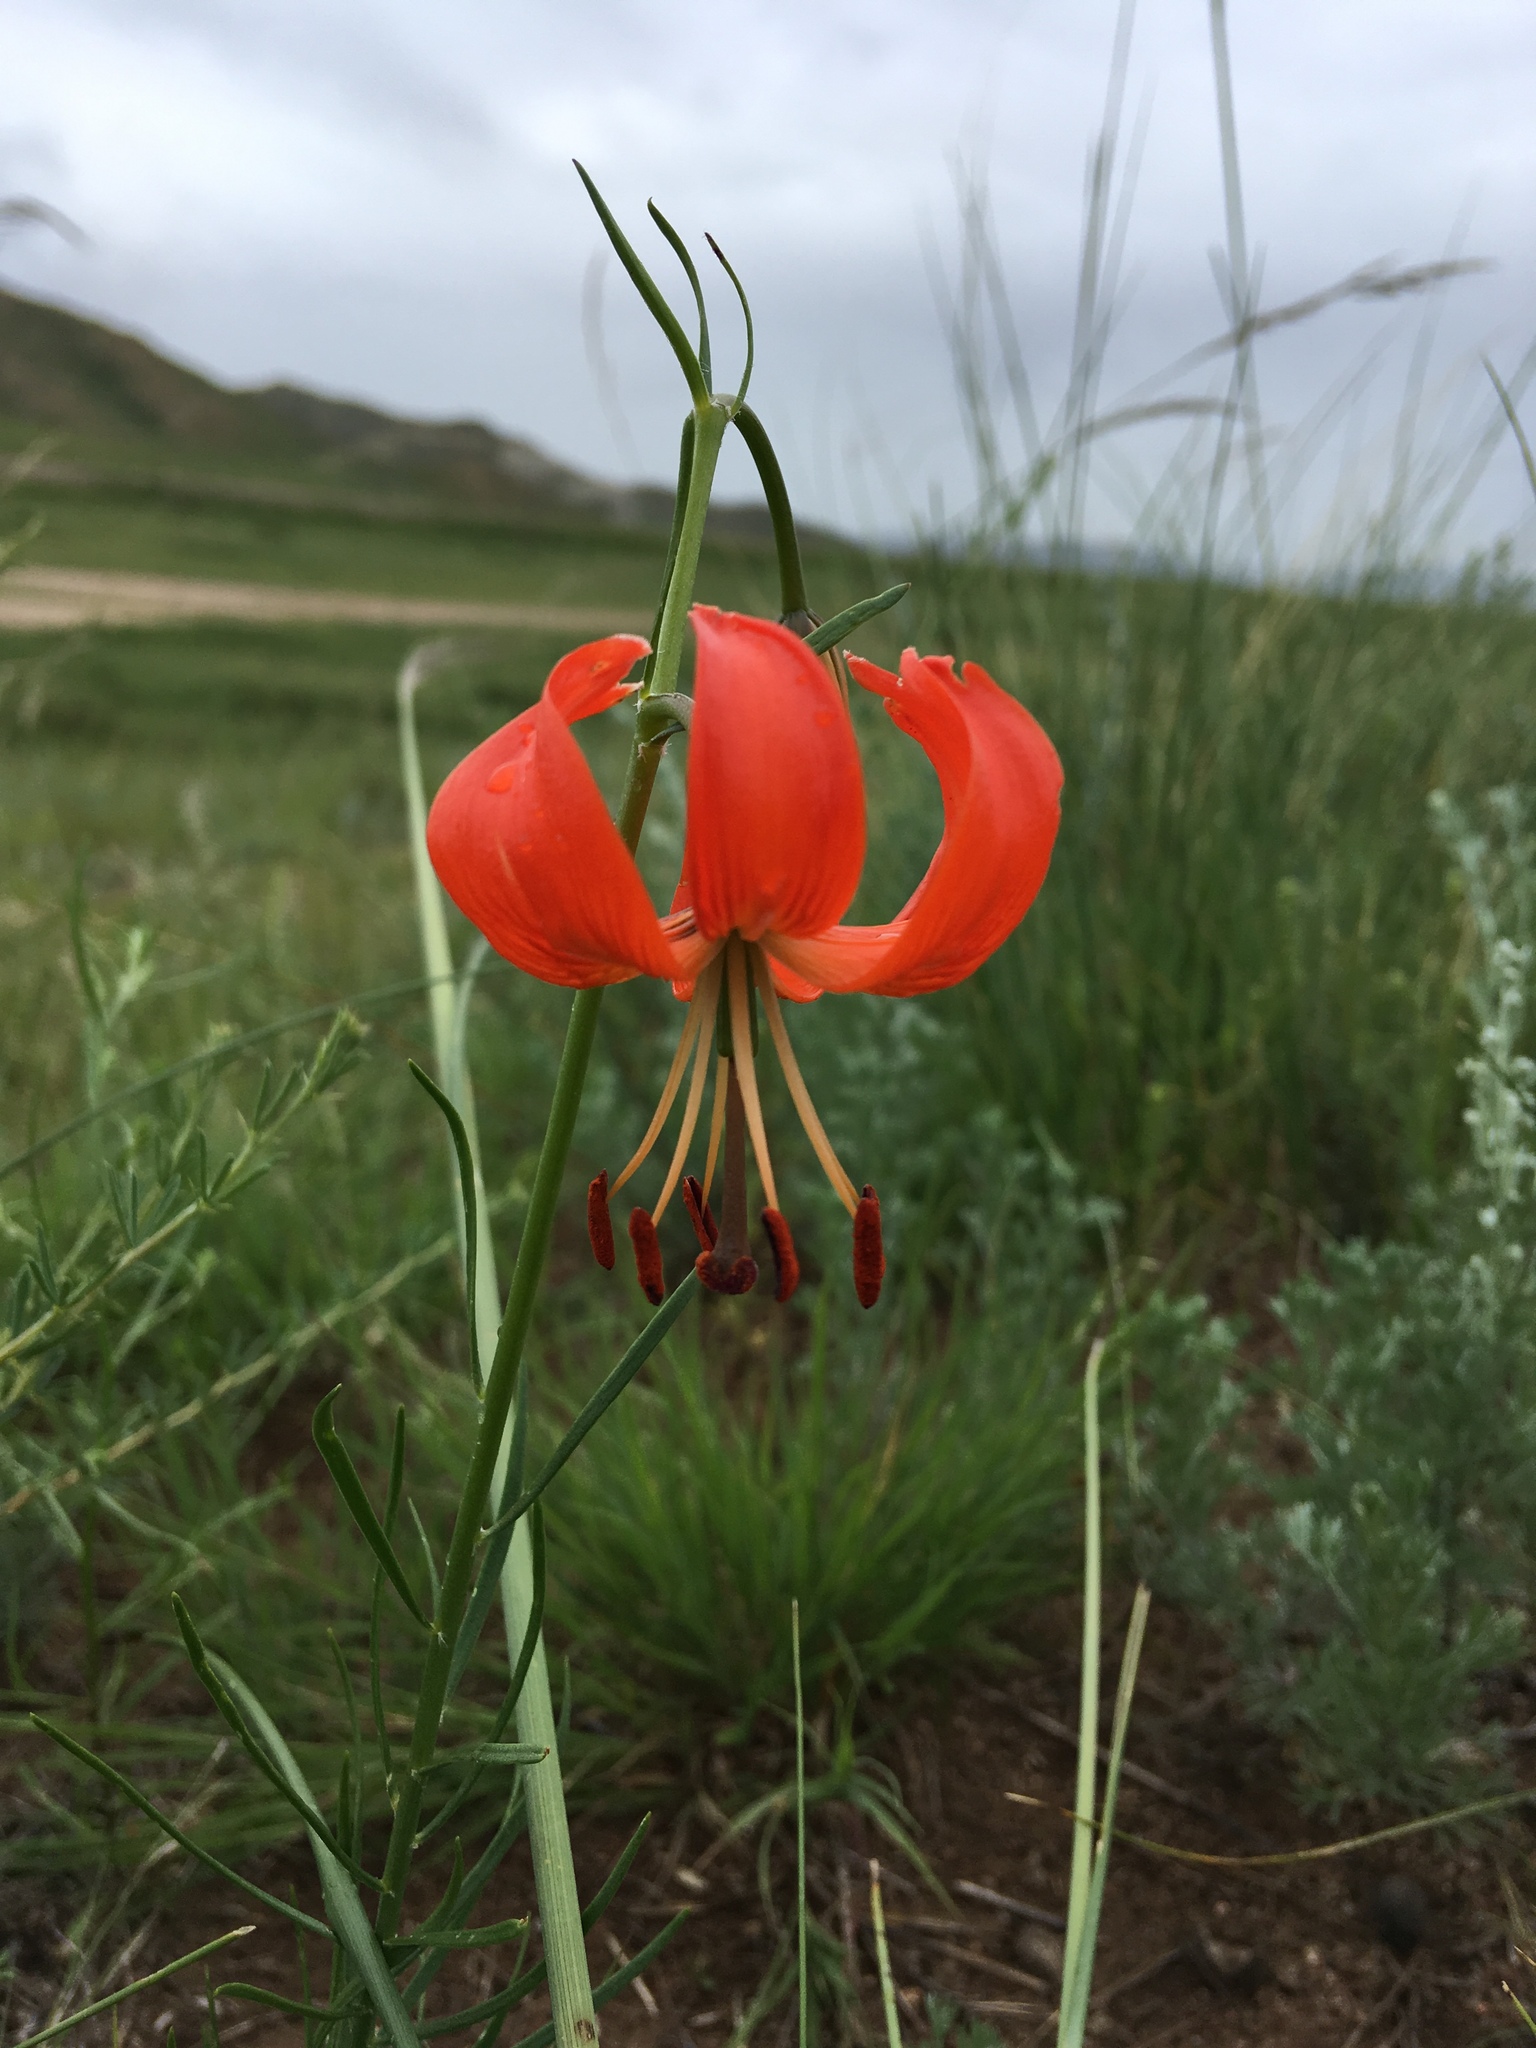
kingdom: Plantae
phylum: Tracheophyta
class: Liliopsida
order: Liliales
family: Liliaceae
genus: Lilium
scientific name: Lilium pumilum
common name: Coral lily
